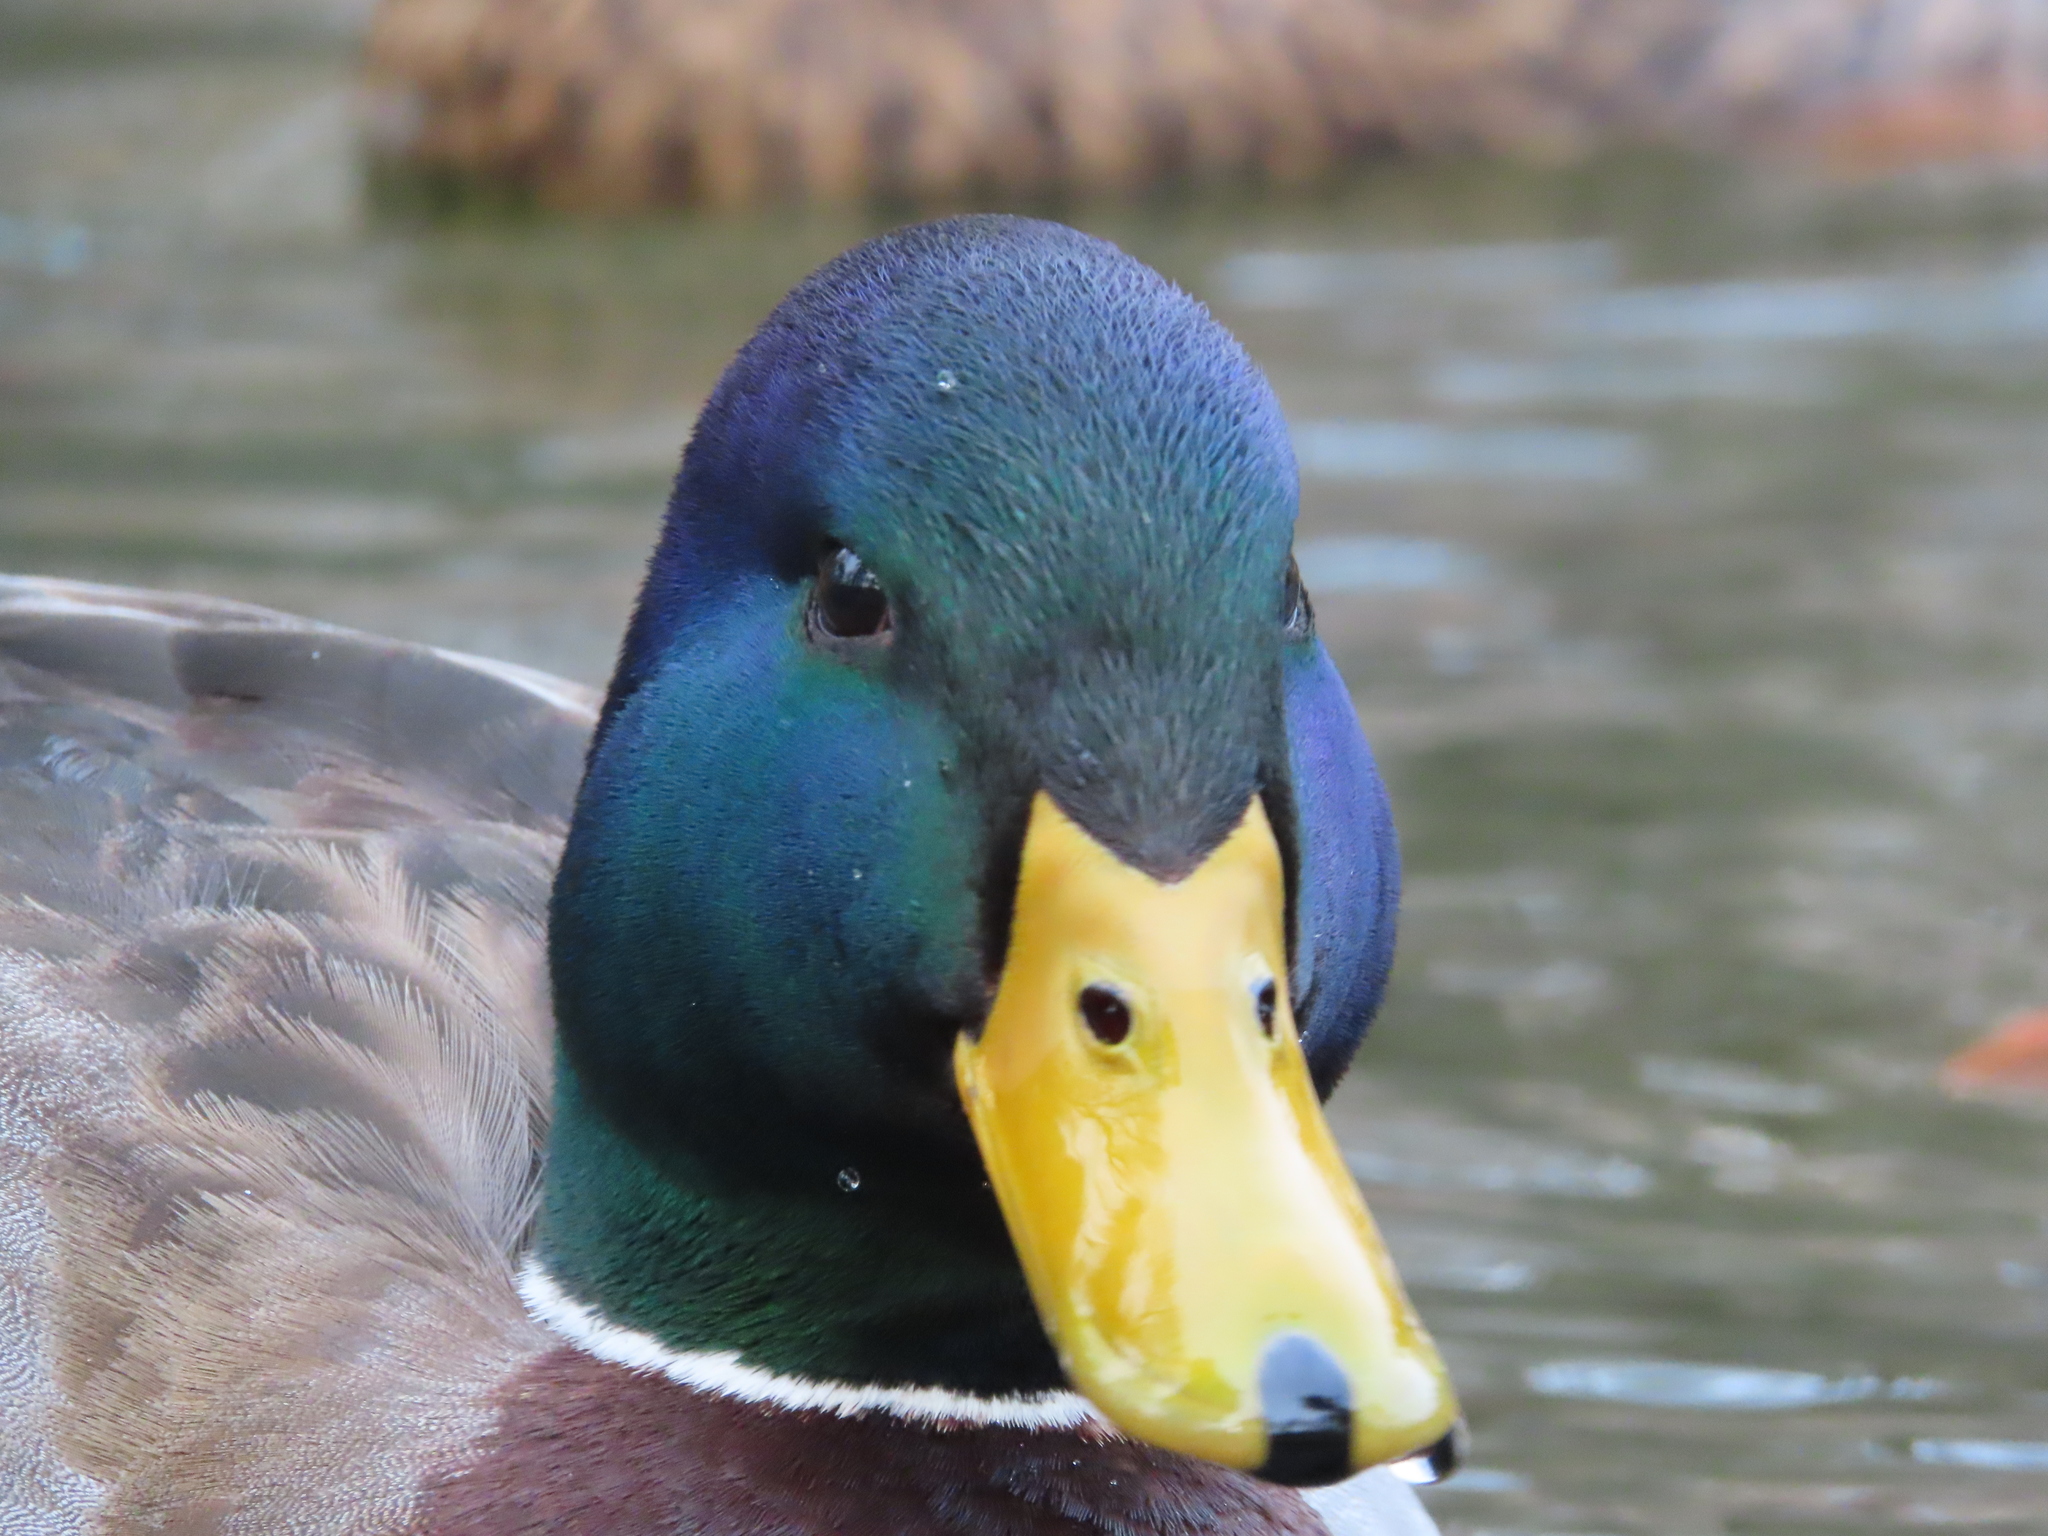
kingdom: Animalia
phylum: Chordata
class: Aves
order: Anseriformes
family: Anatidae
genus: Anas
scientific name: Anas platyrhynchos
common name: Mallard
